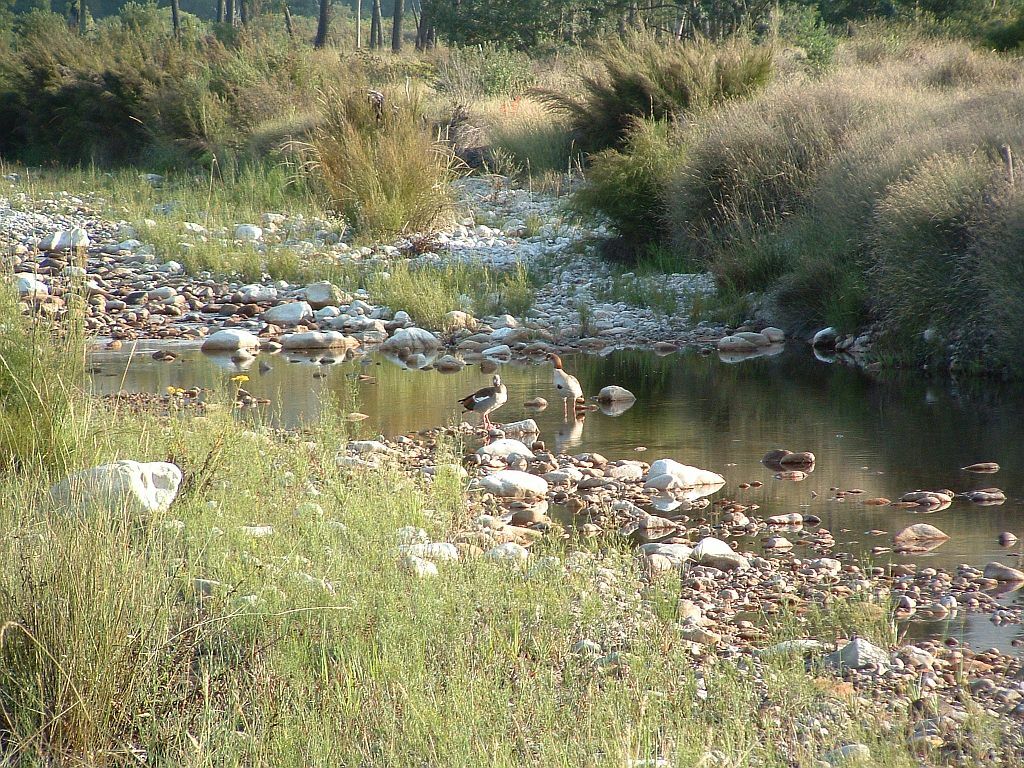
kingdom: Animalia
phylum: Chordata
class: Aves
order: Anseriformes
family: Anatidae
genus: Alopochen
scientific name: Alopochen aegyptiaca
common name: Egyptian goose
